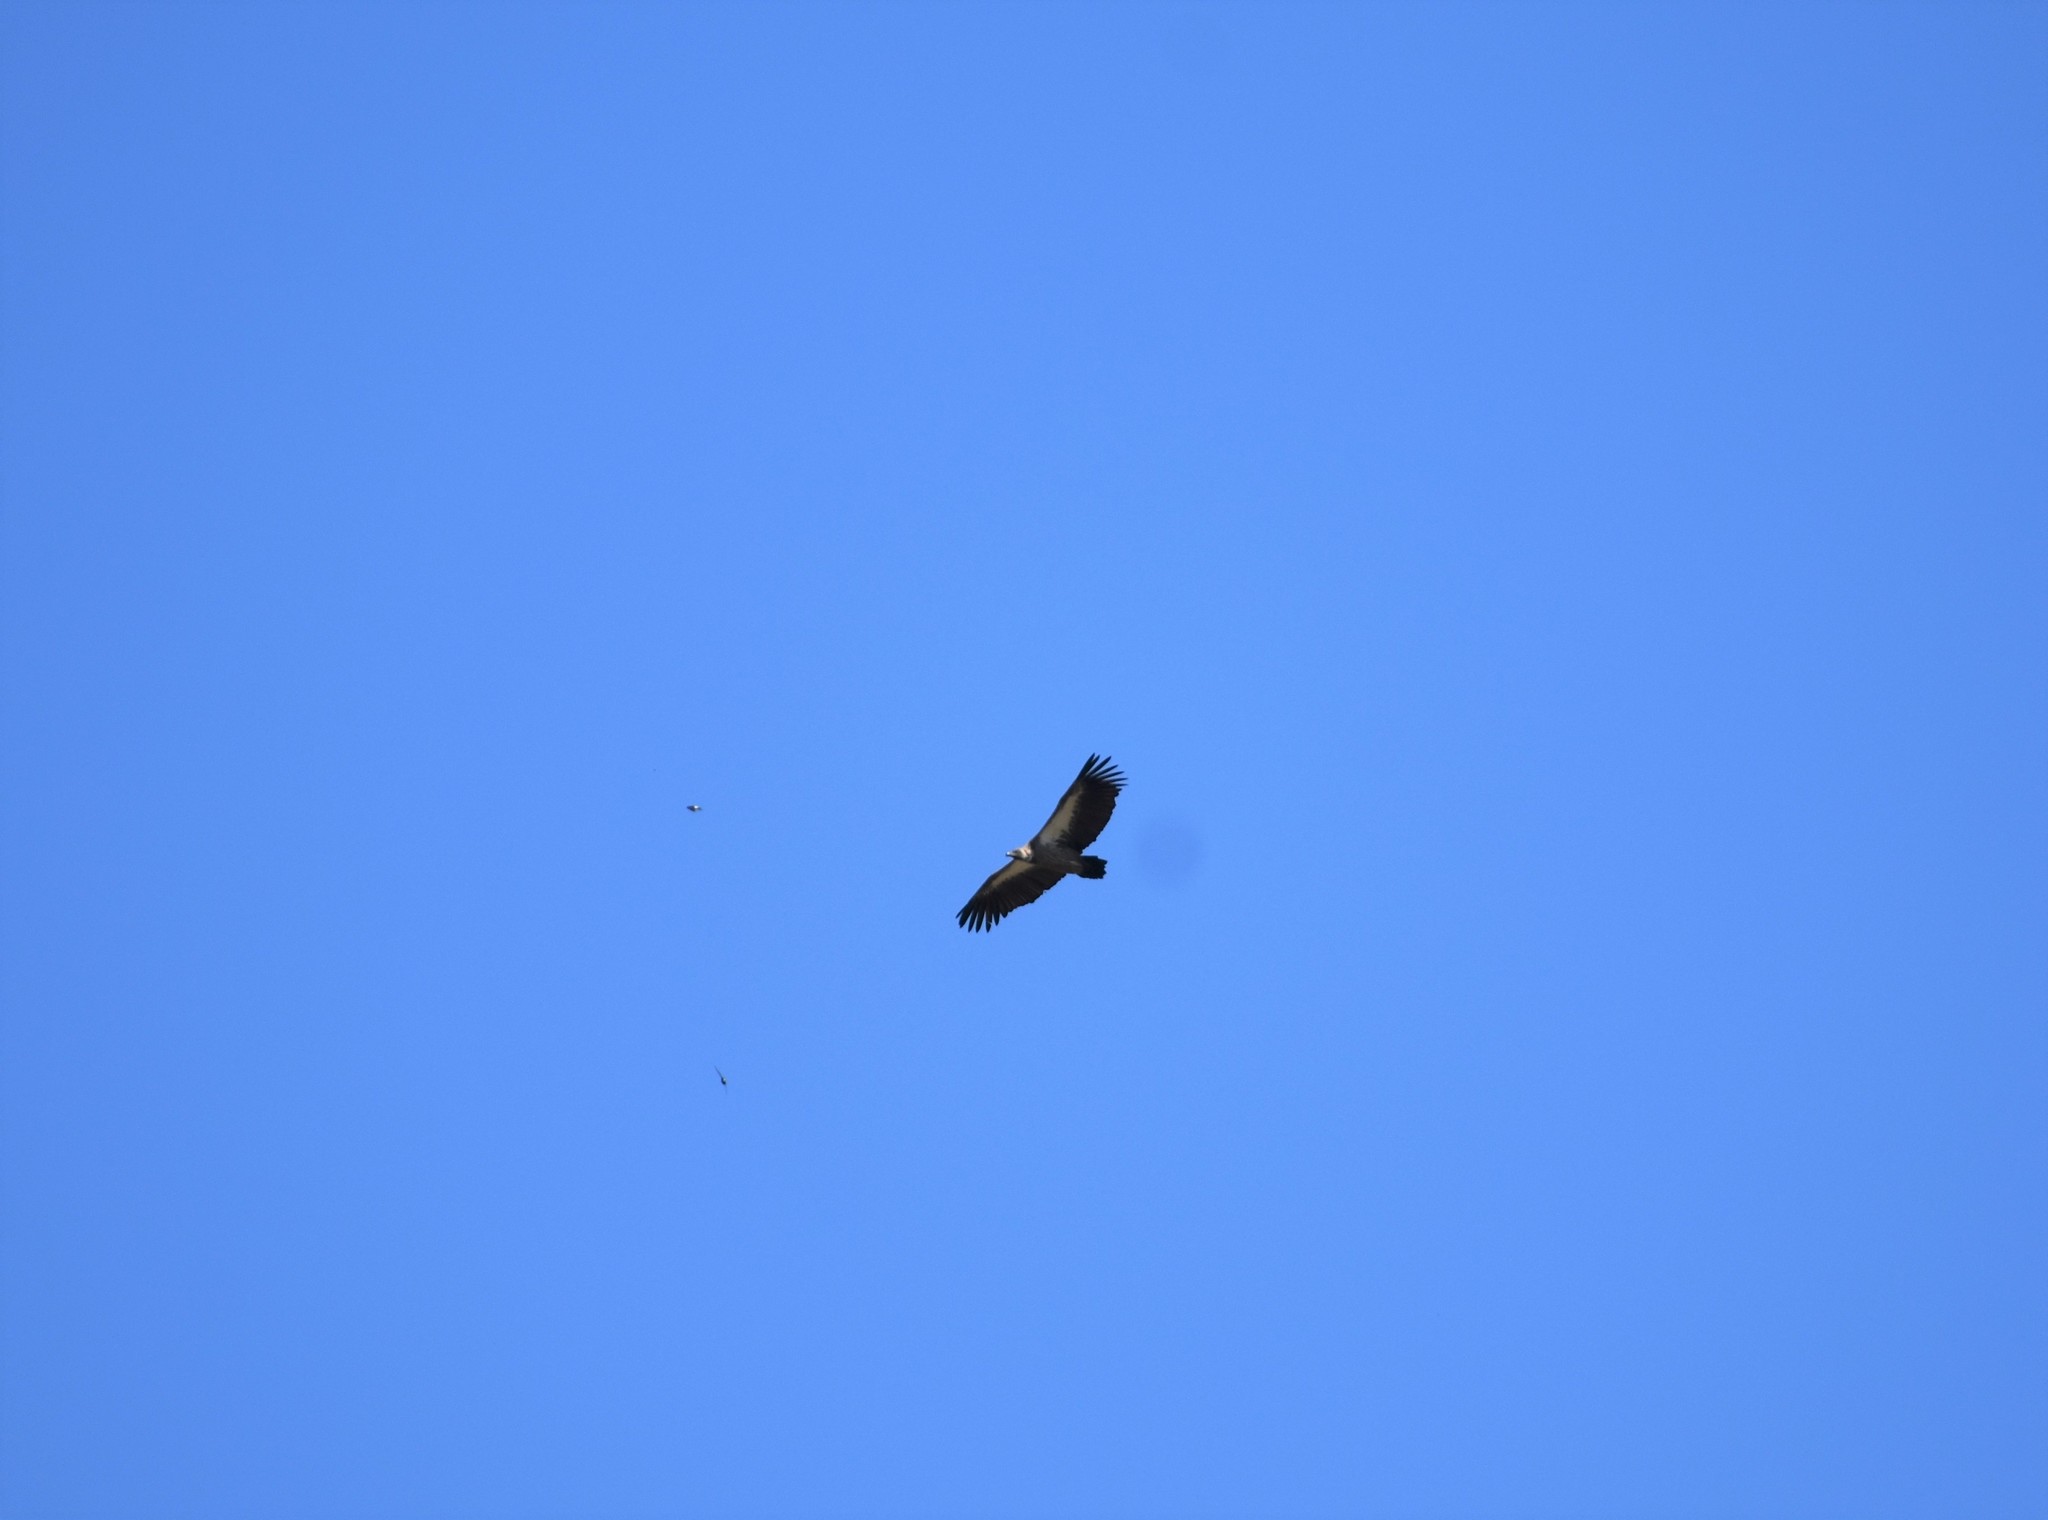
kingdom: Animalia
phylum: Chordata
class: Aves
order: Accipitriformes
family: Accipitridae
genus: Gyps
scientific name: Gyps africanus
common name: White-backed vulture
